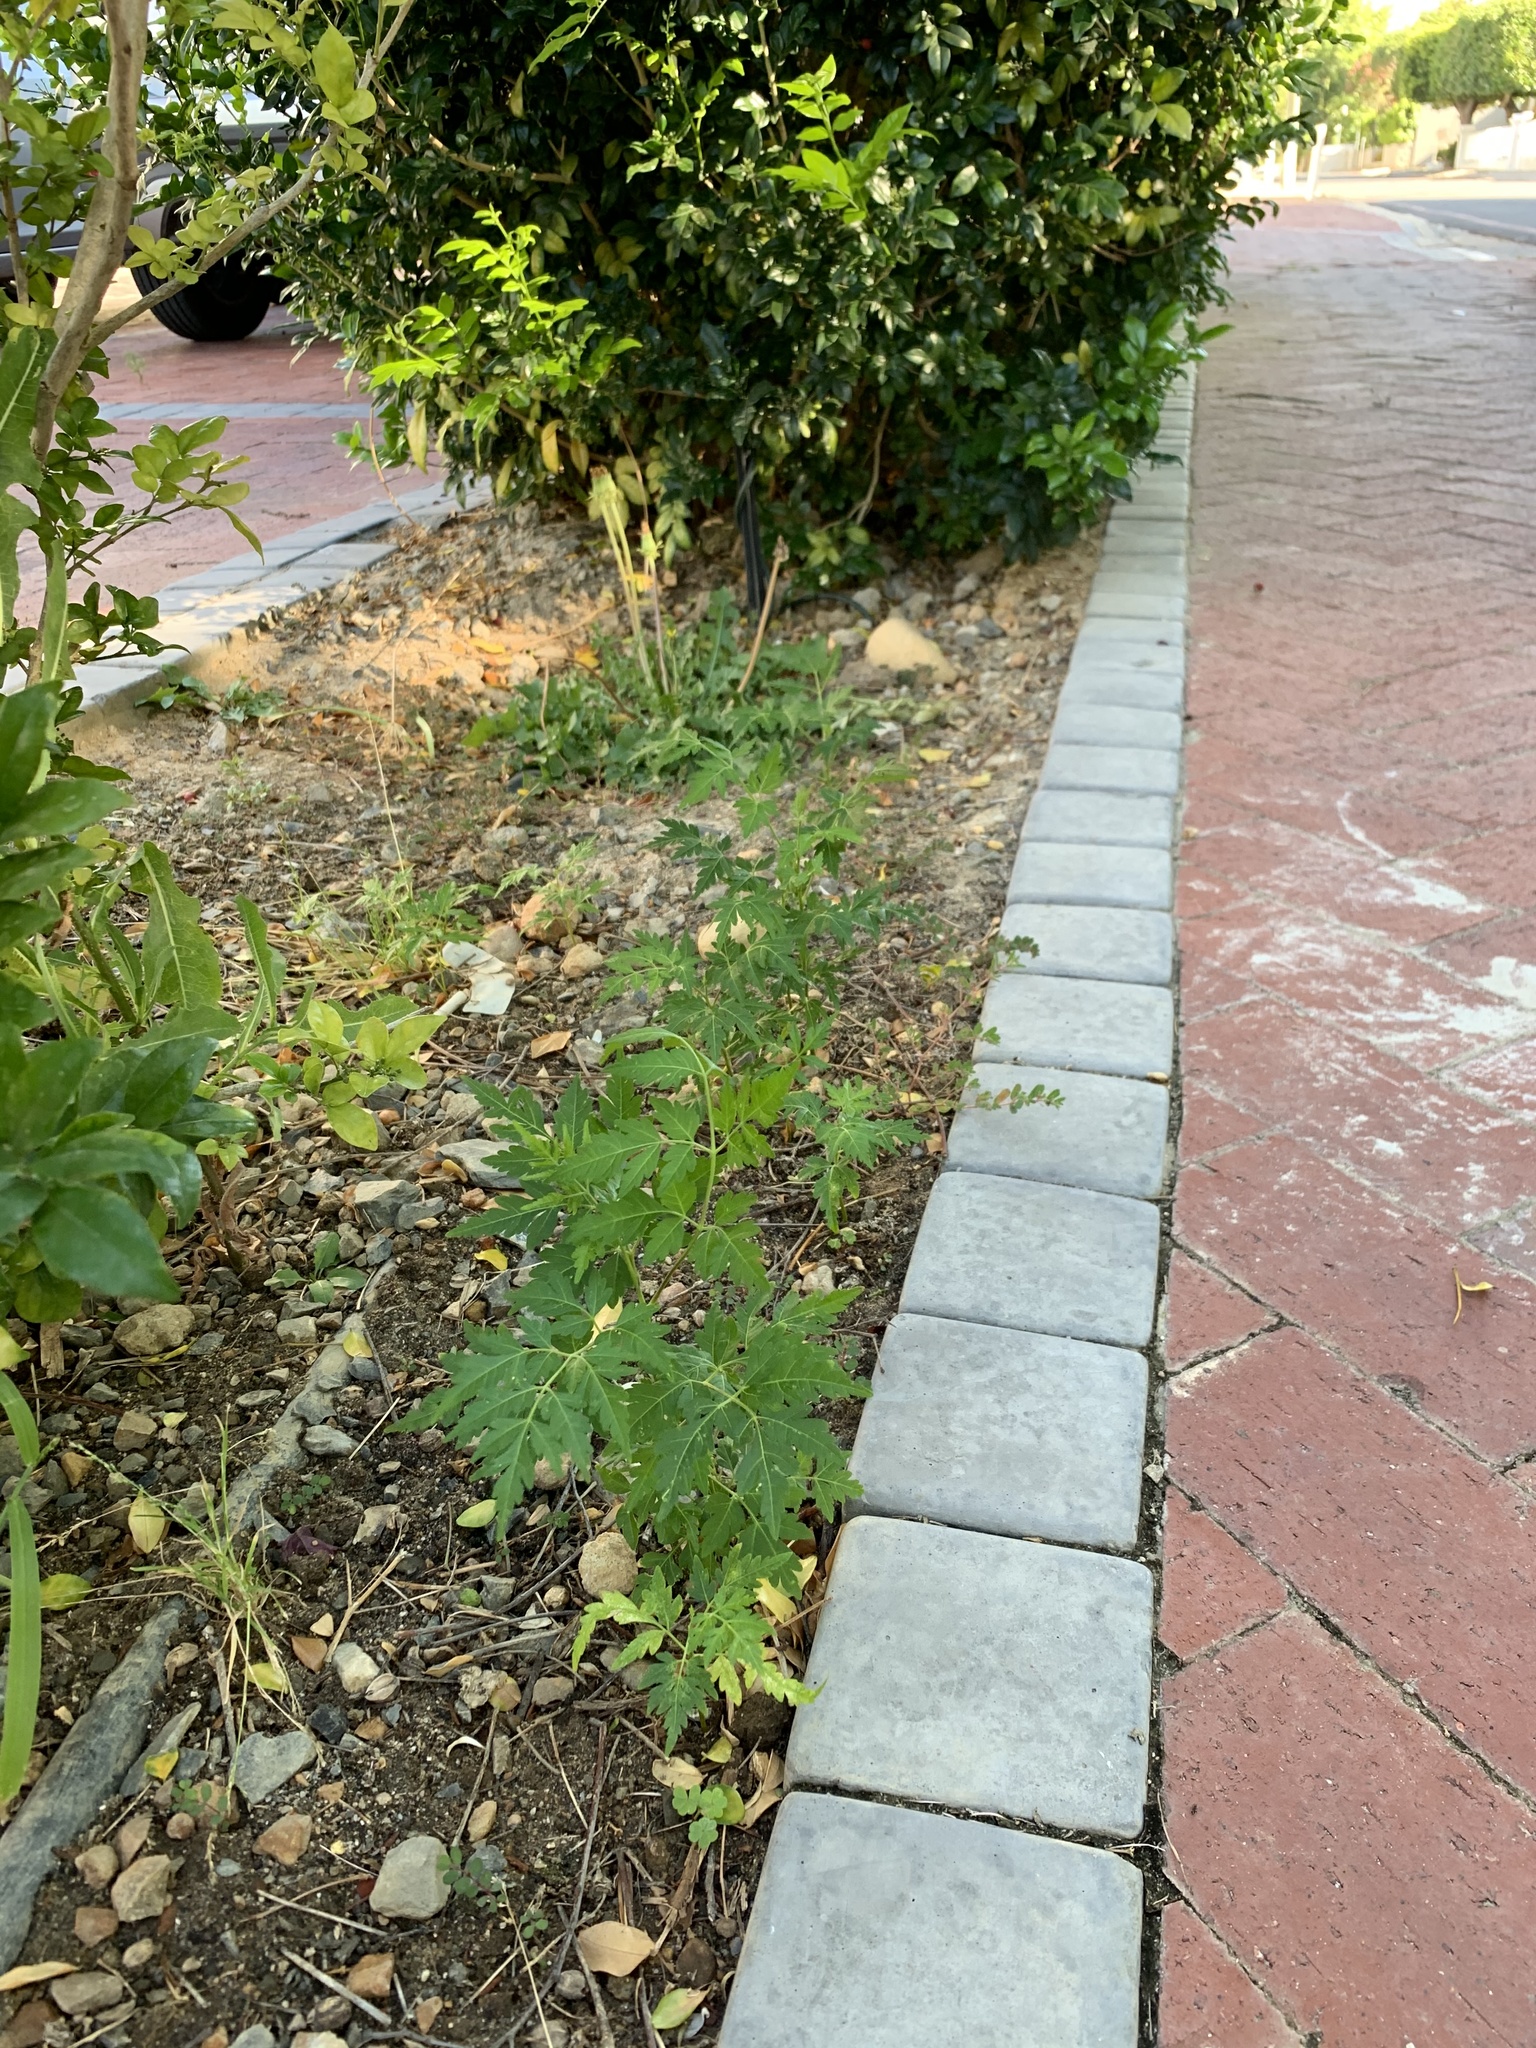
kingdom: Plantae
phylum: Tracheophyta
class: Magnoliopsida
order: Sapindales
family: Meliaceae
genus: Melia
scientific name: Melia azedarach
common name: Chinaberrytree
